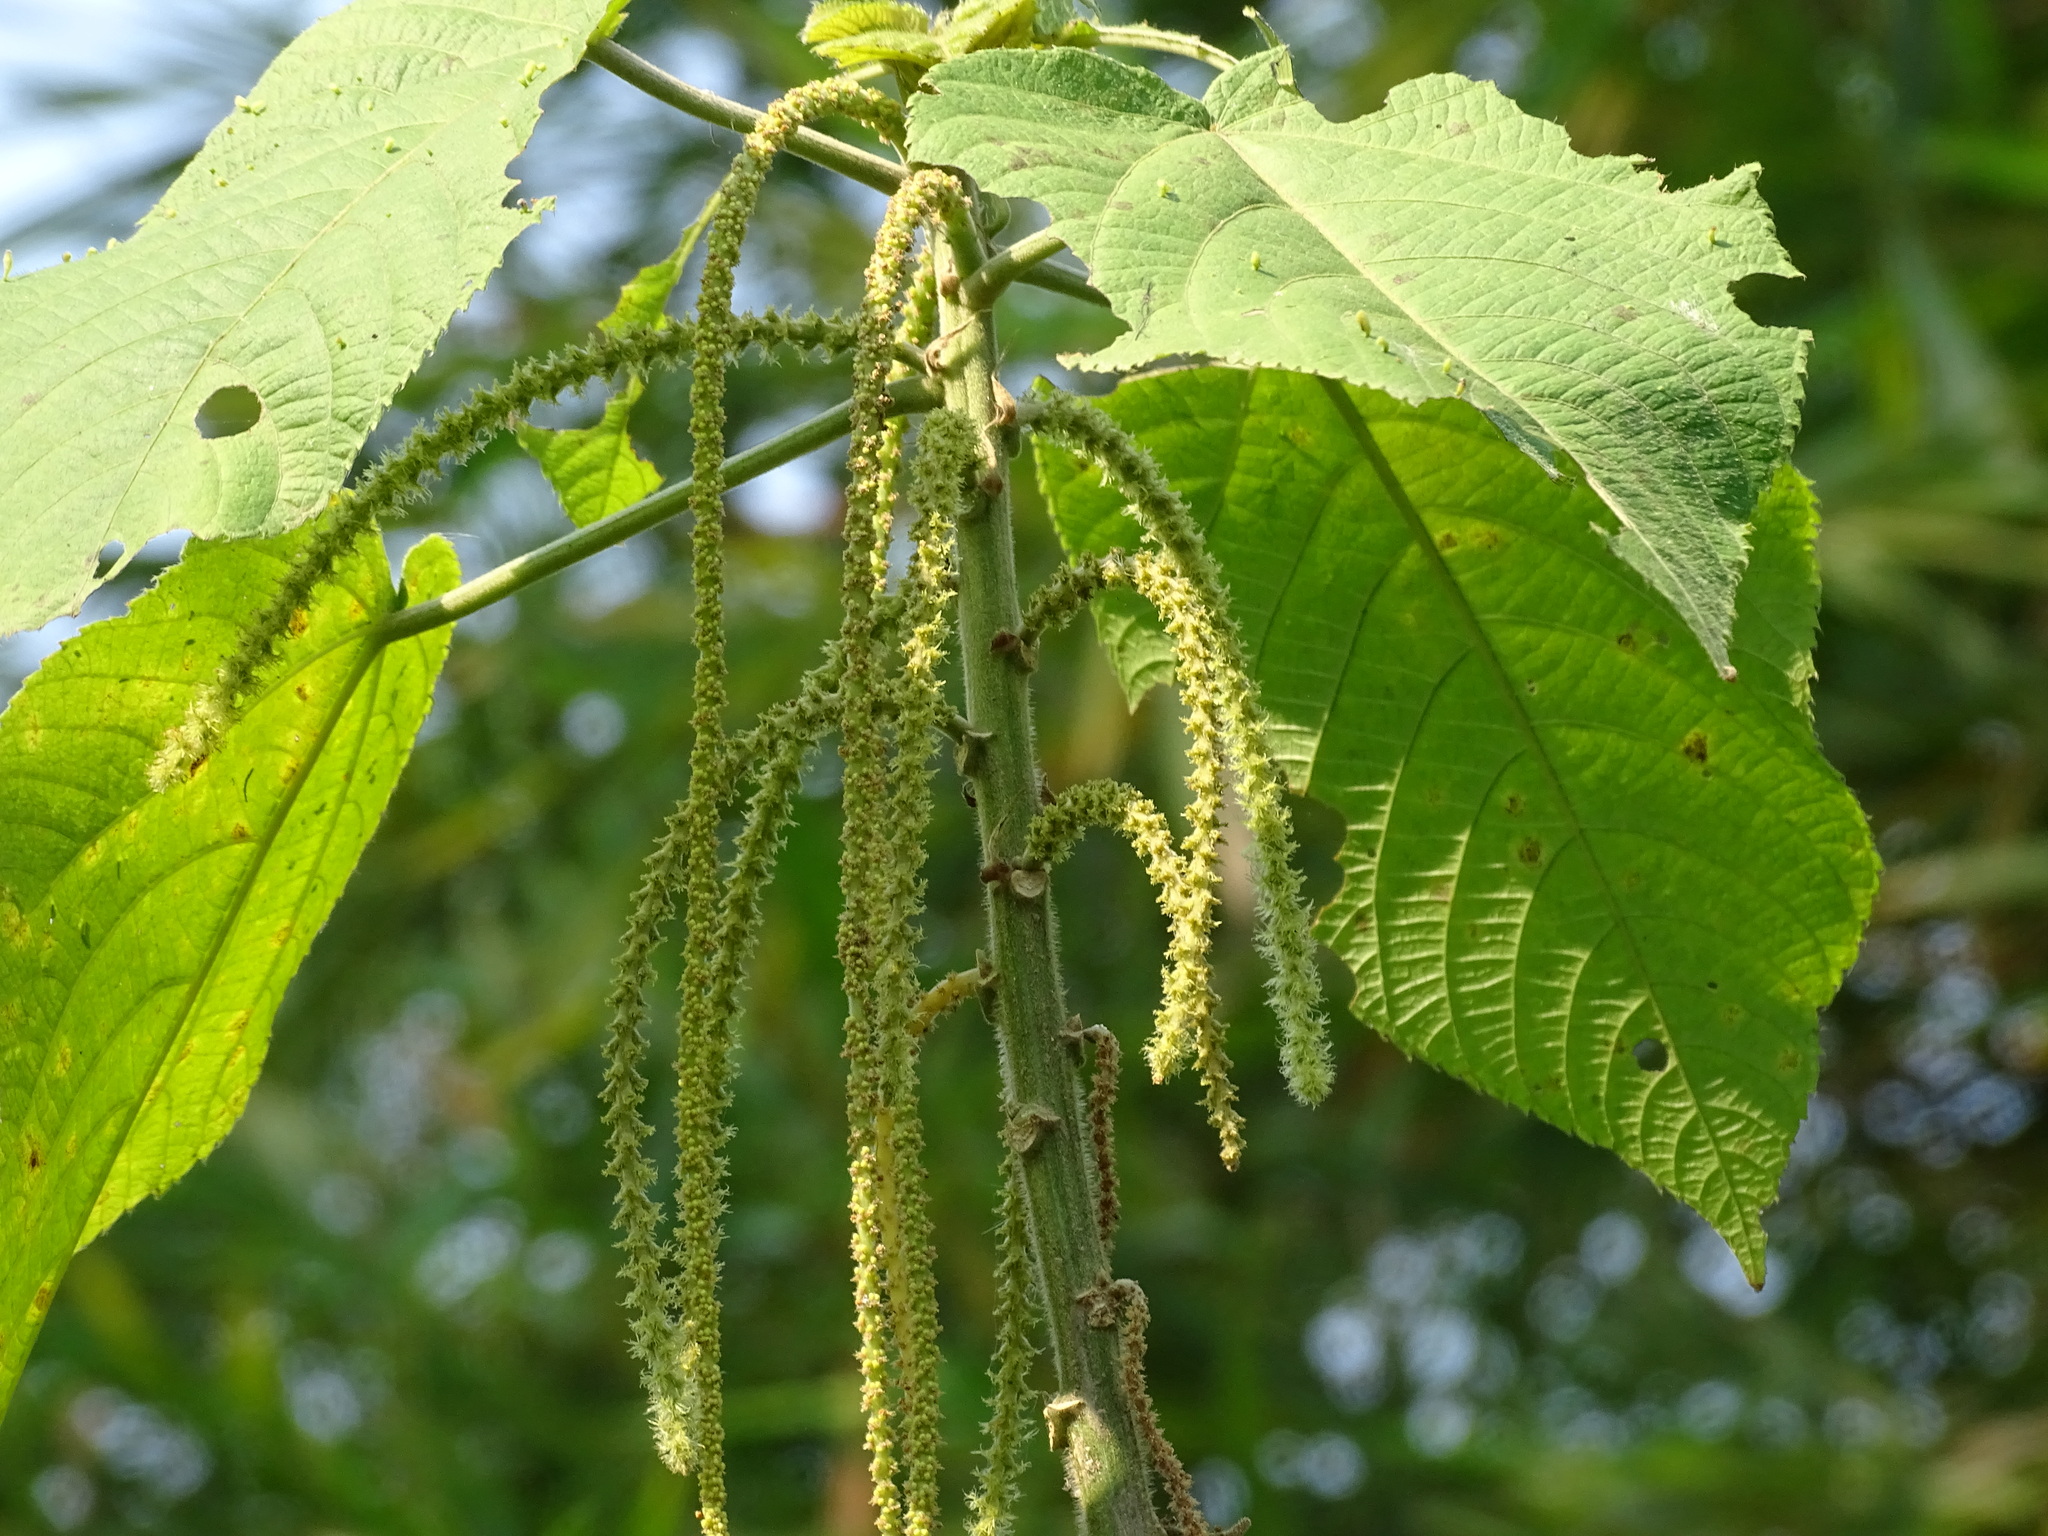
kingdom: Plantae
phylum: Tracheophyta
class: Magnoliopsida
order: Rosales
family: Urticaceae
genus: Myriocarpa
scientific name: Myriocarpa longipes
